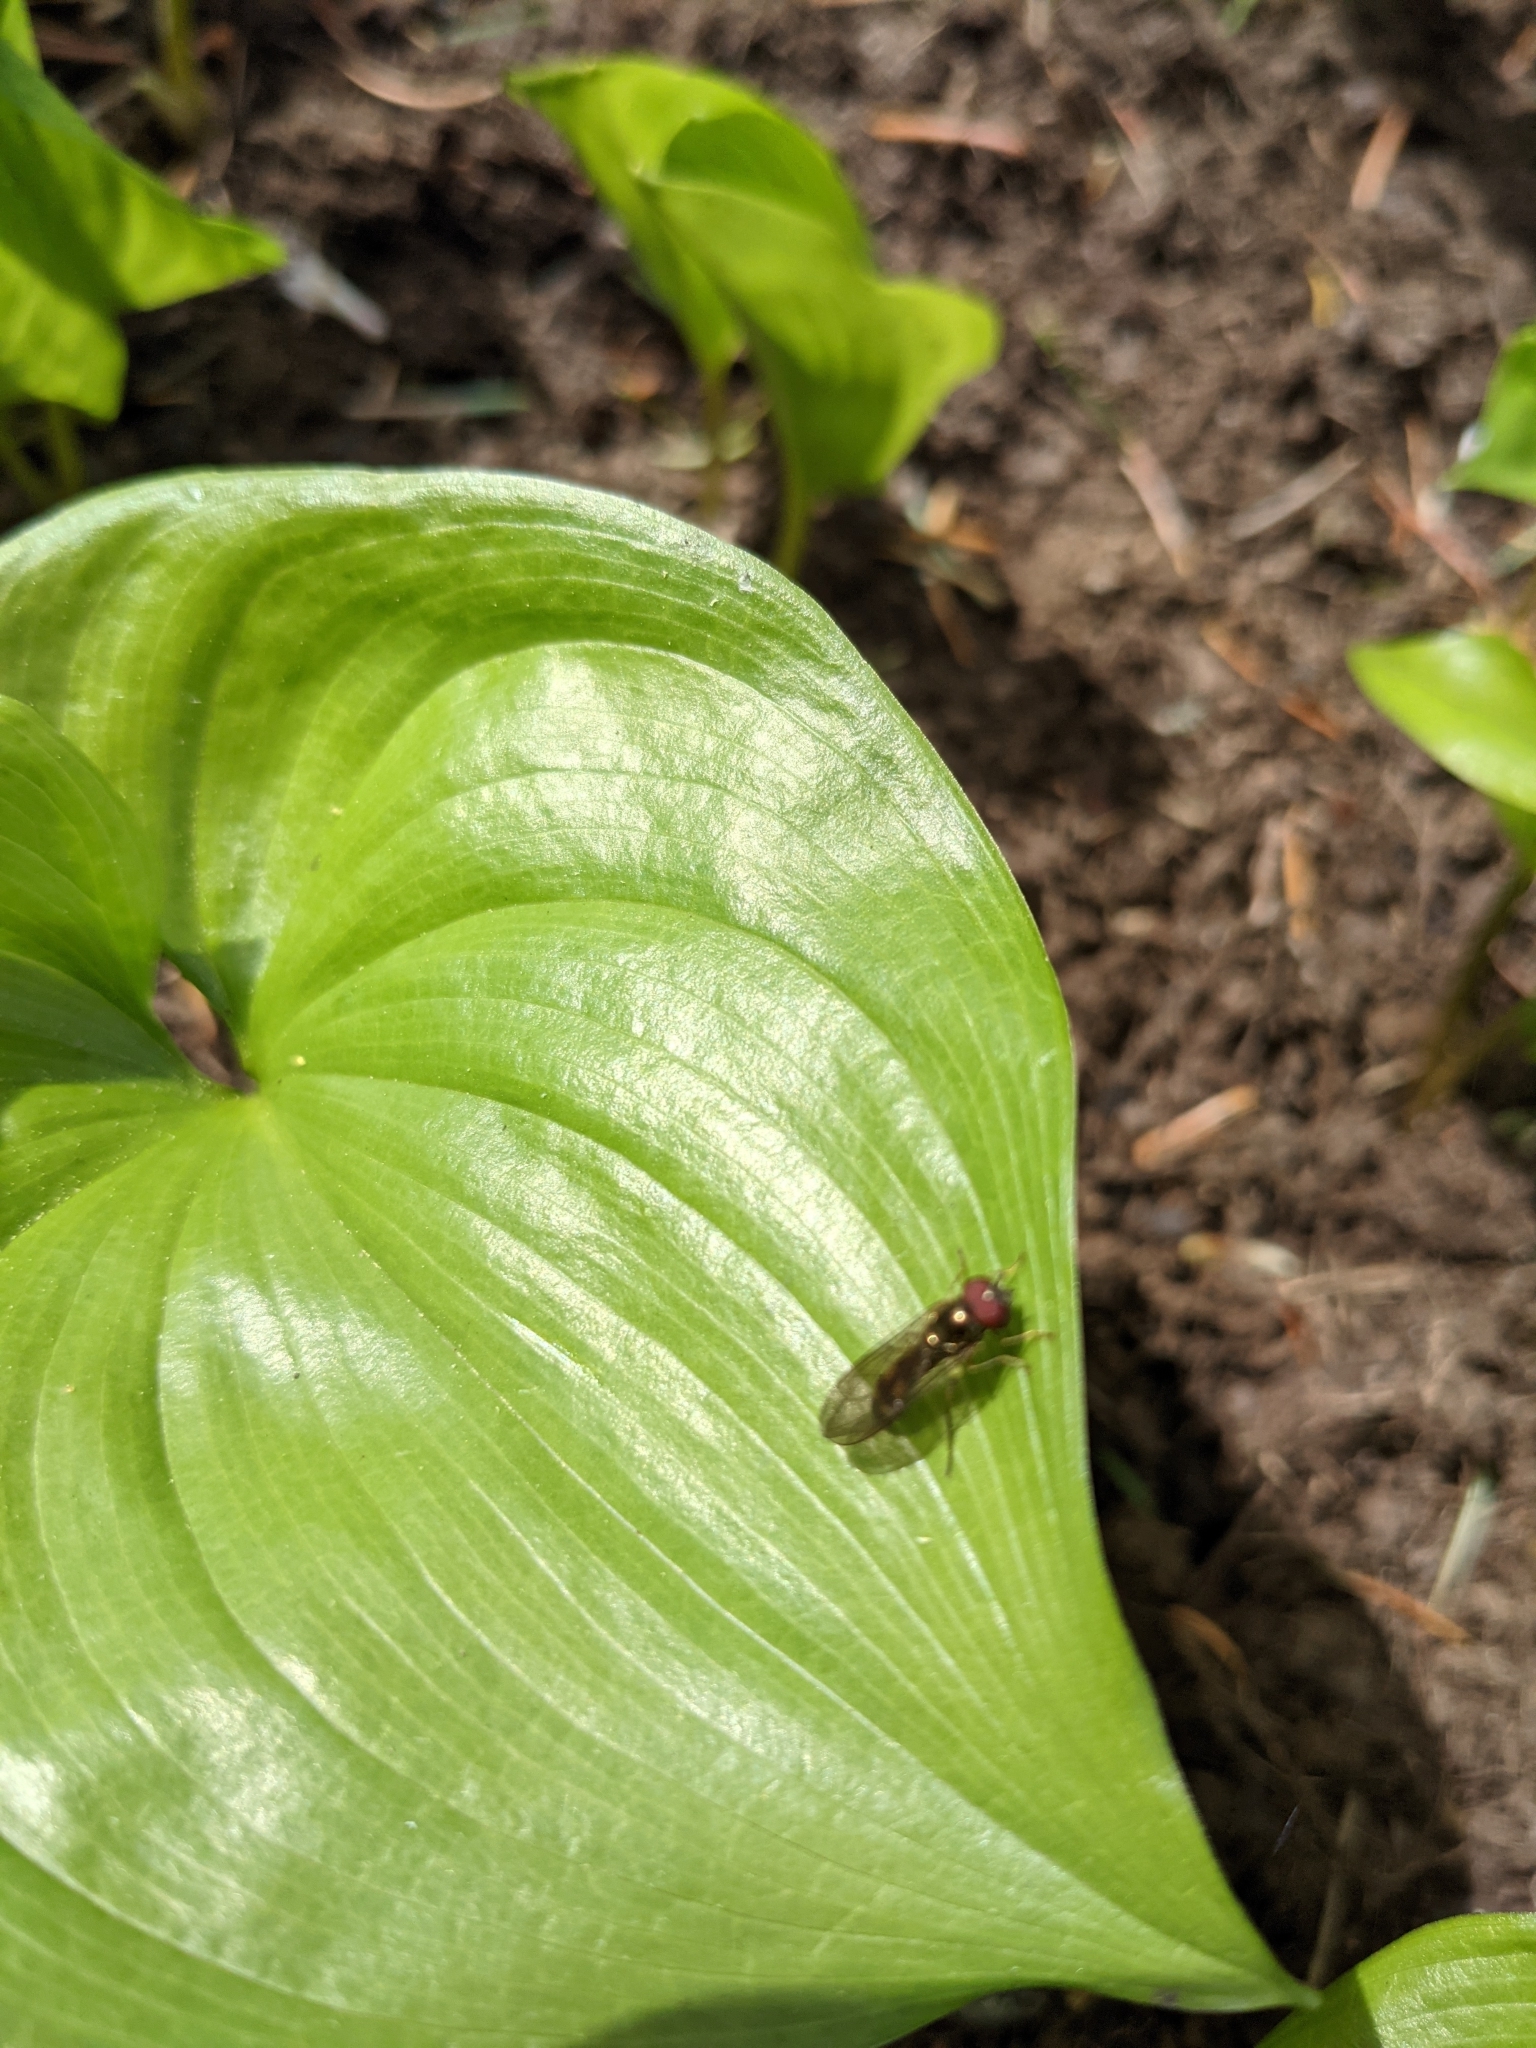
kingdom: Animalia
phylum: Arthropoda
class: Insecta
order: Diptera
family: Syrphidae
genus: Melanostoma
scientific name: Melanostoma mellina
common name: Hover fly
